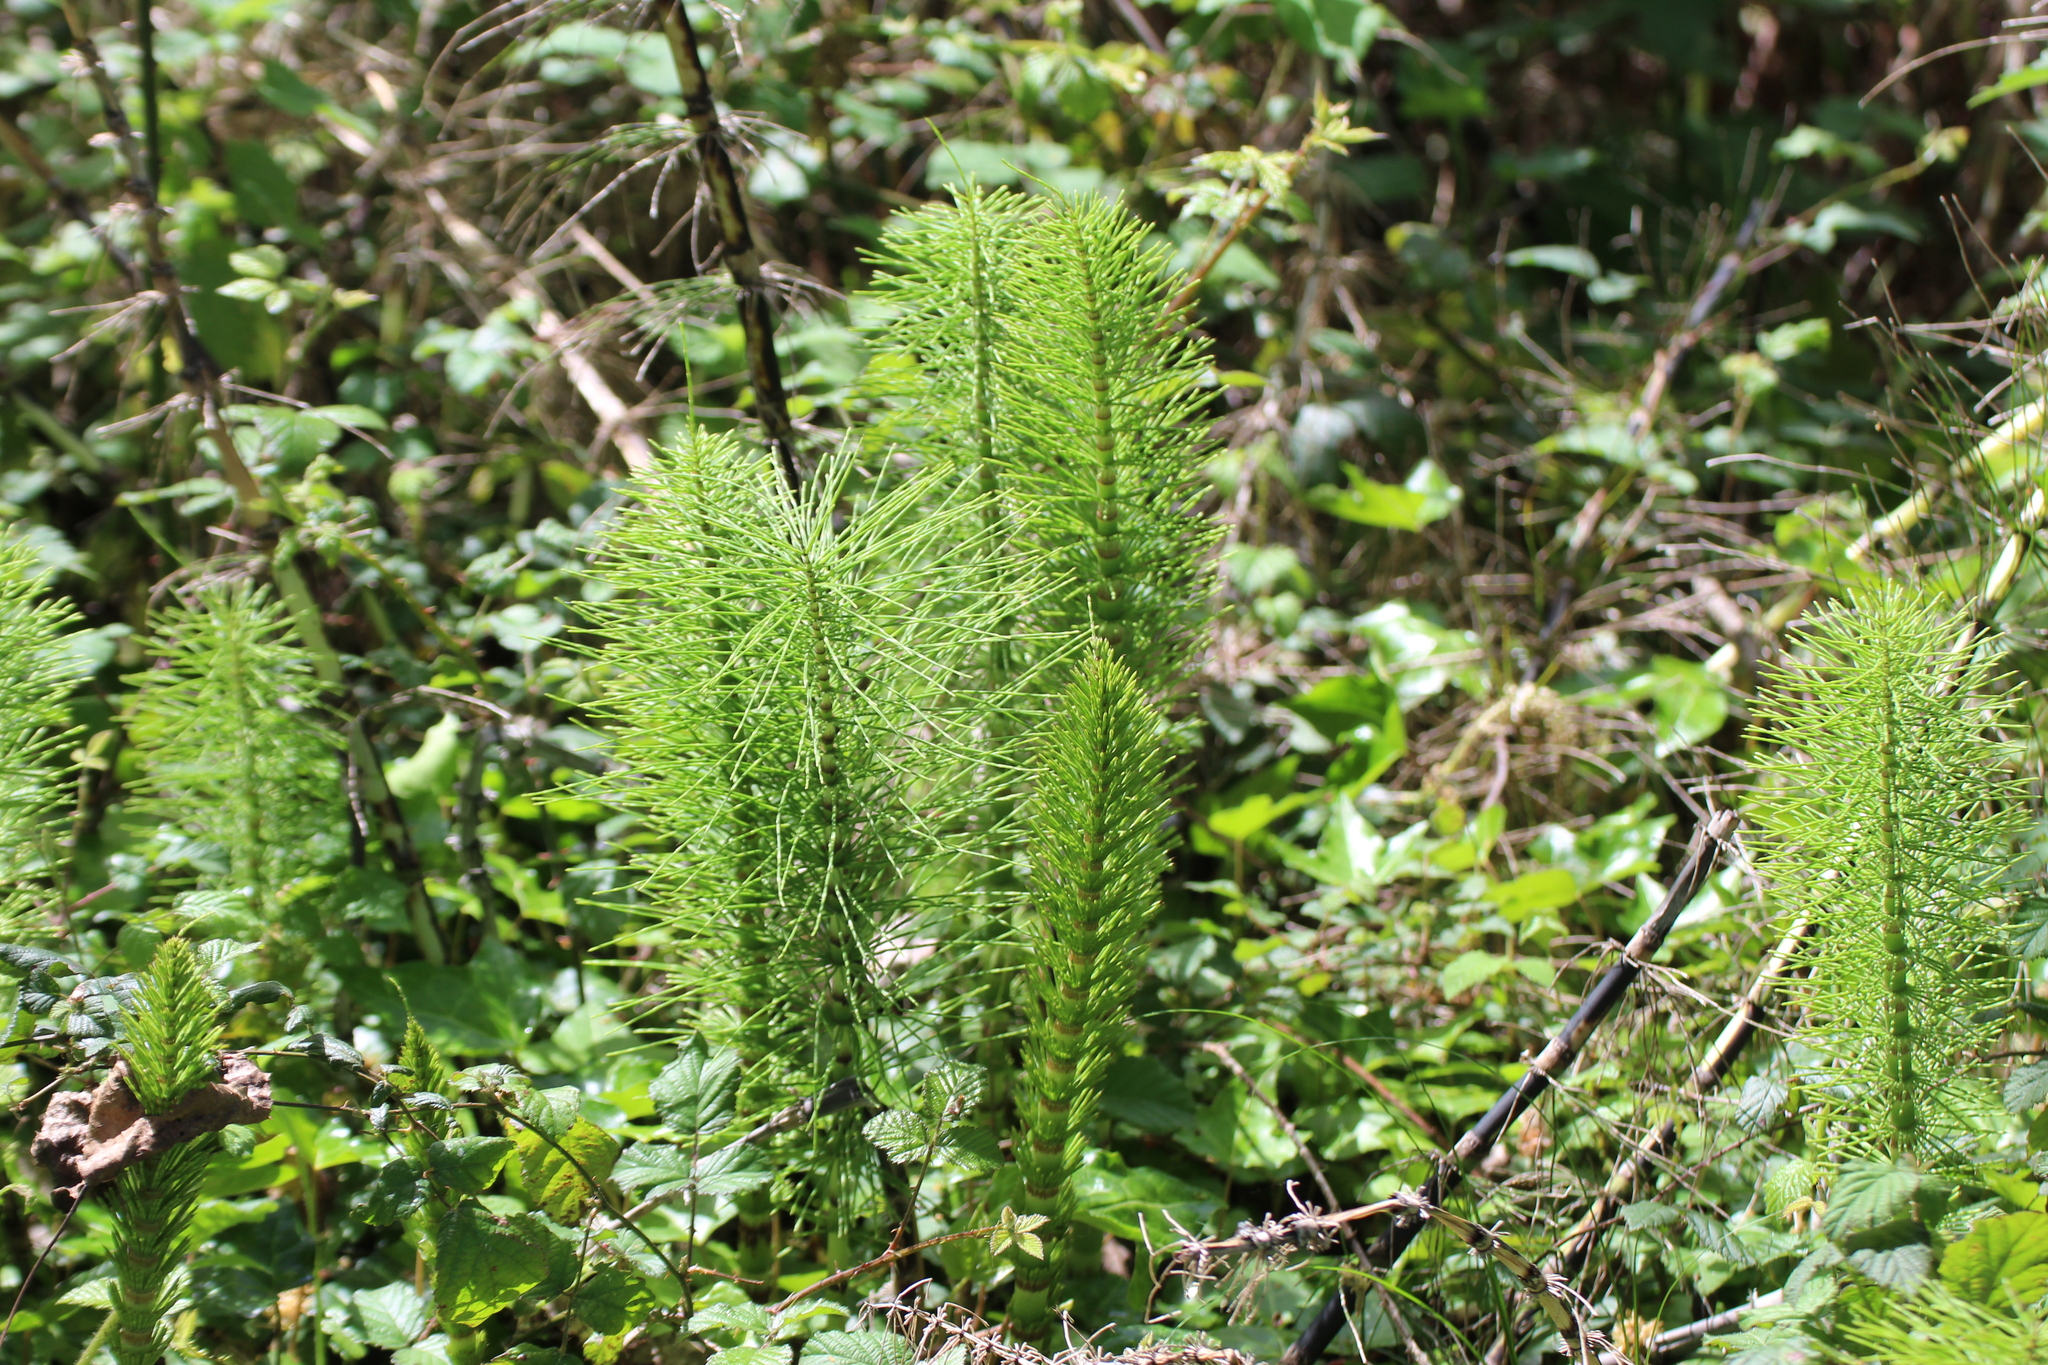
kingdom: Plantae
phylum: Tracheophyta
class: Polypodiopsida
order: Equisetales
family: Equisetaceae
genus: Equisetum
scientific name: Equisetum telmateia
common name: Great horsetail
